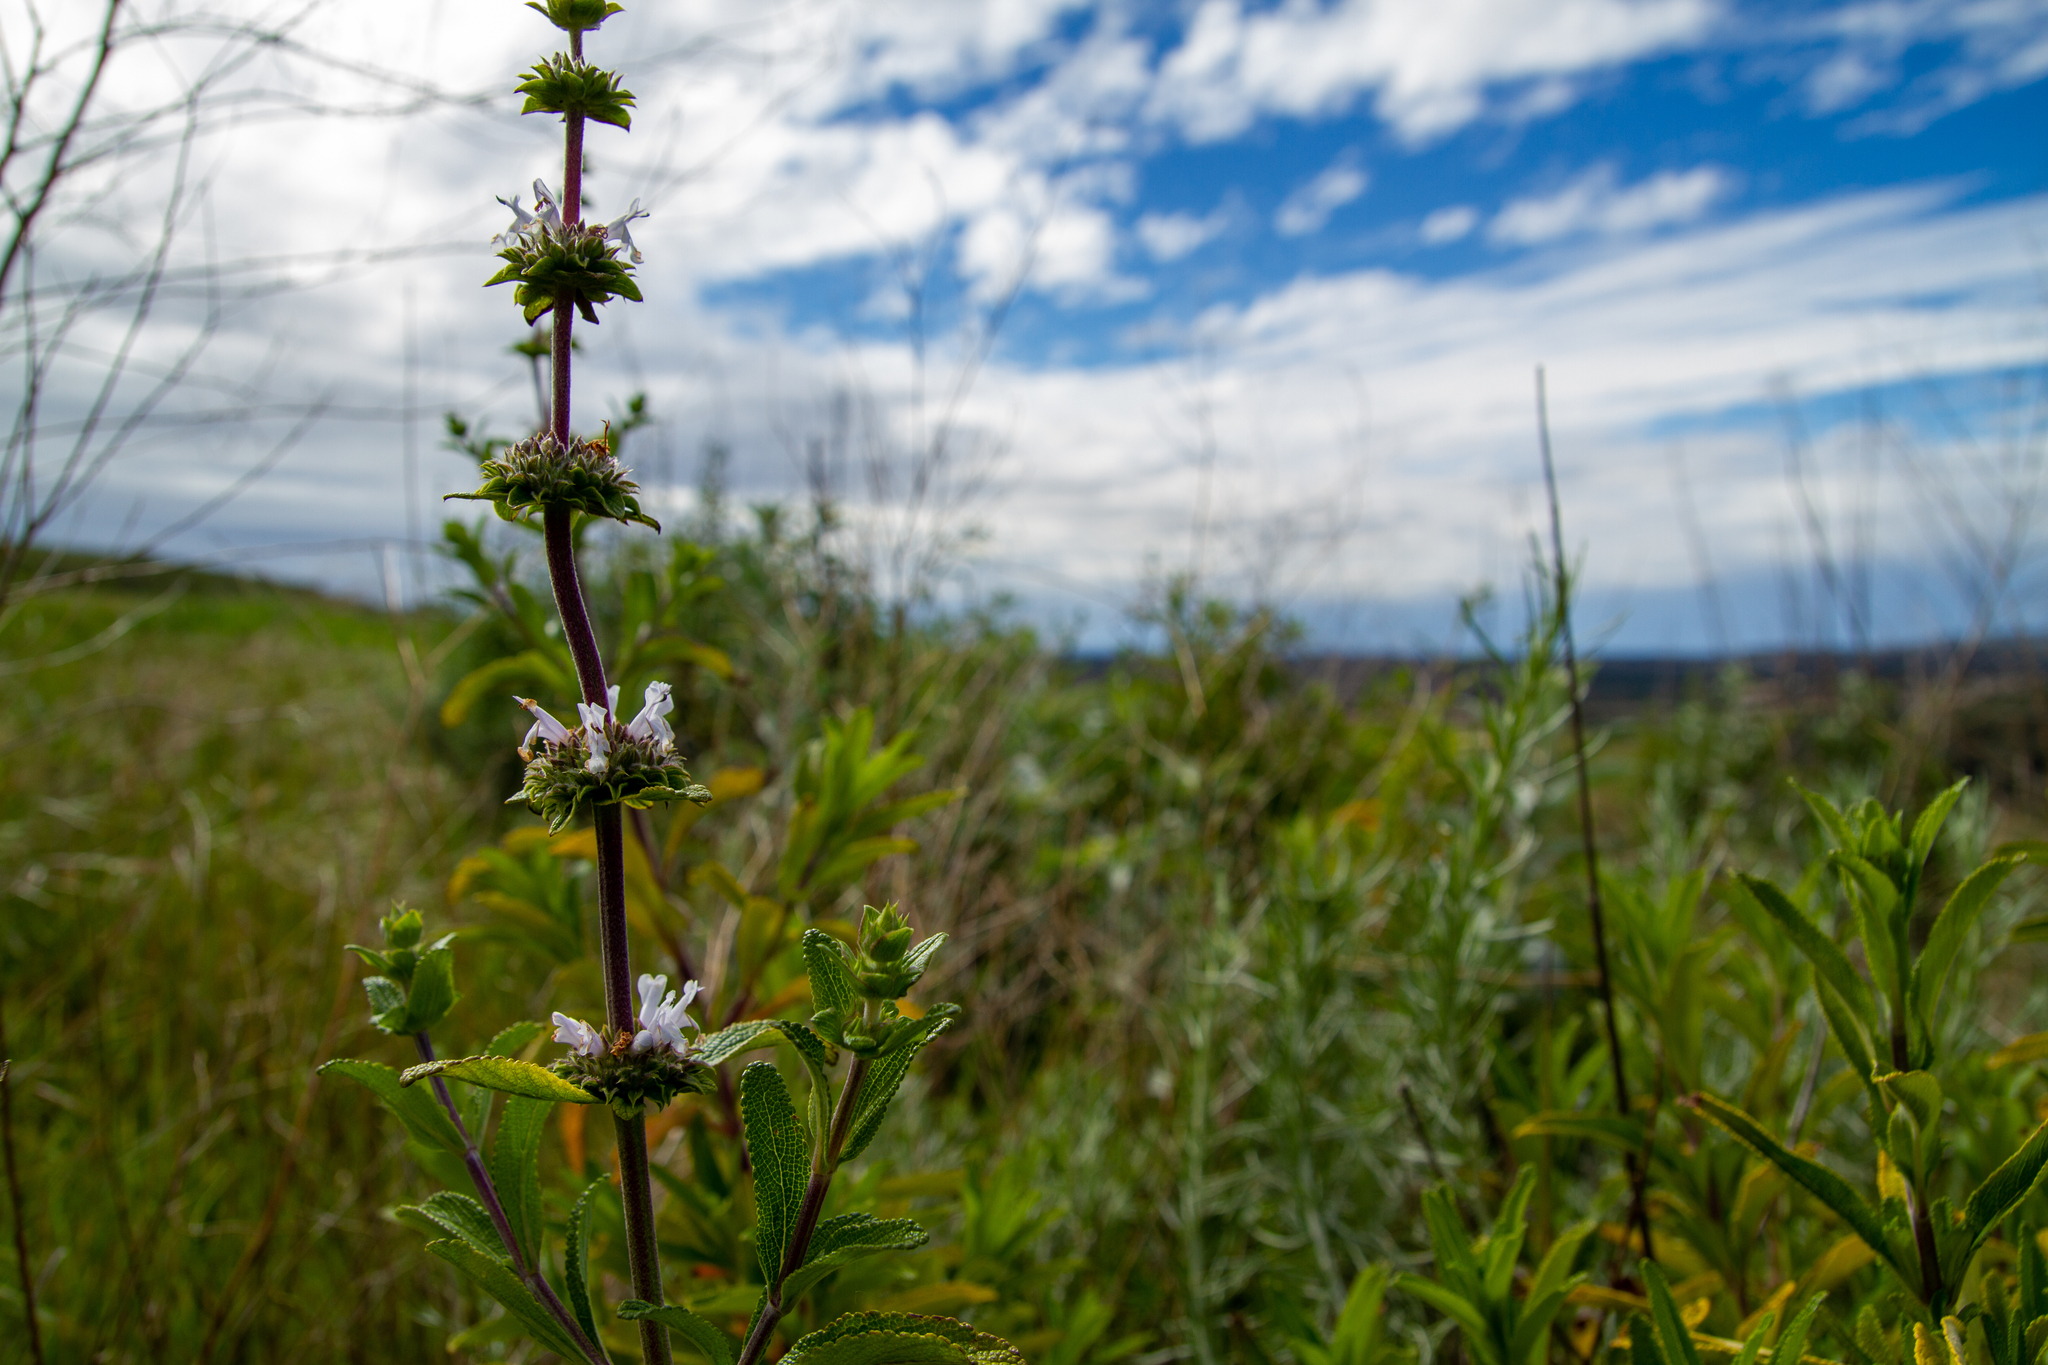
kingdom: Plantae
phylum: Tracheophyta
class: Magnoliopsida
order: Lamiales
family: Lamiaceae
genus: Salvia
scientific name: Salvia mellifera
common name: Black sage
